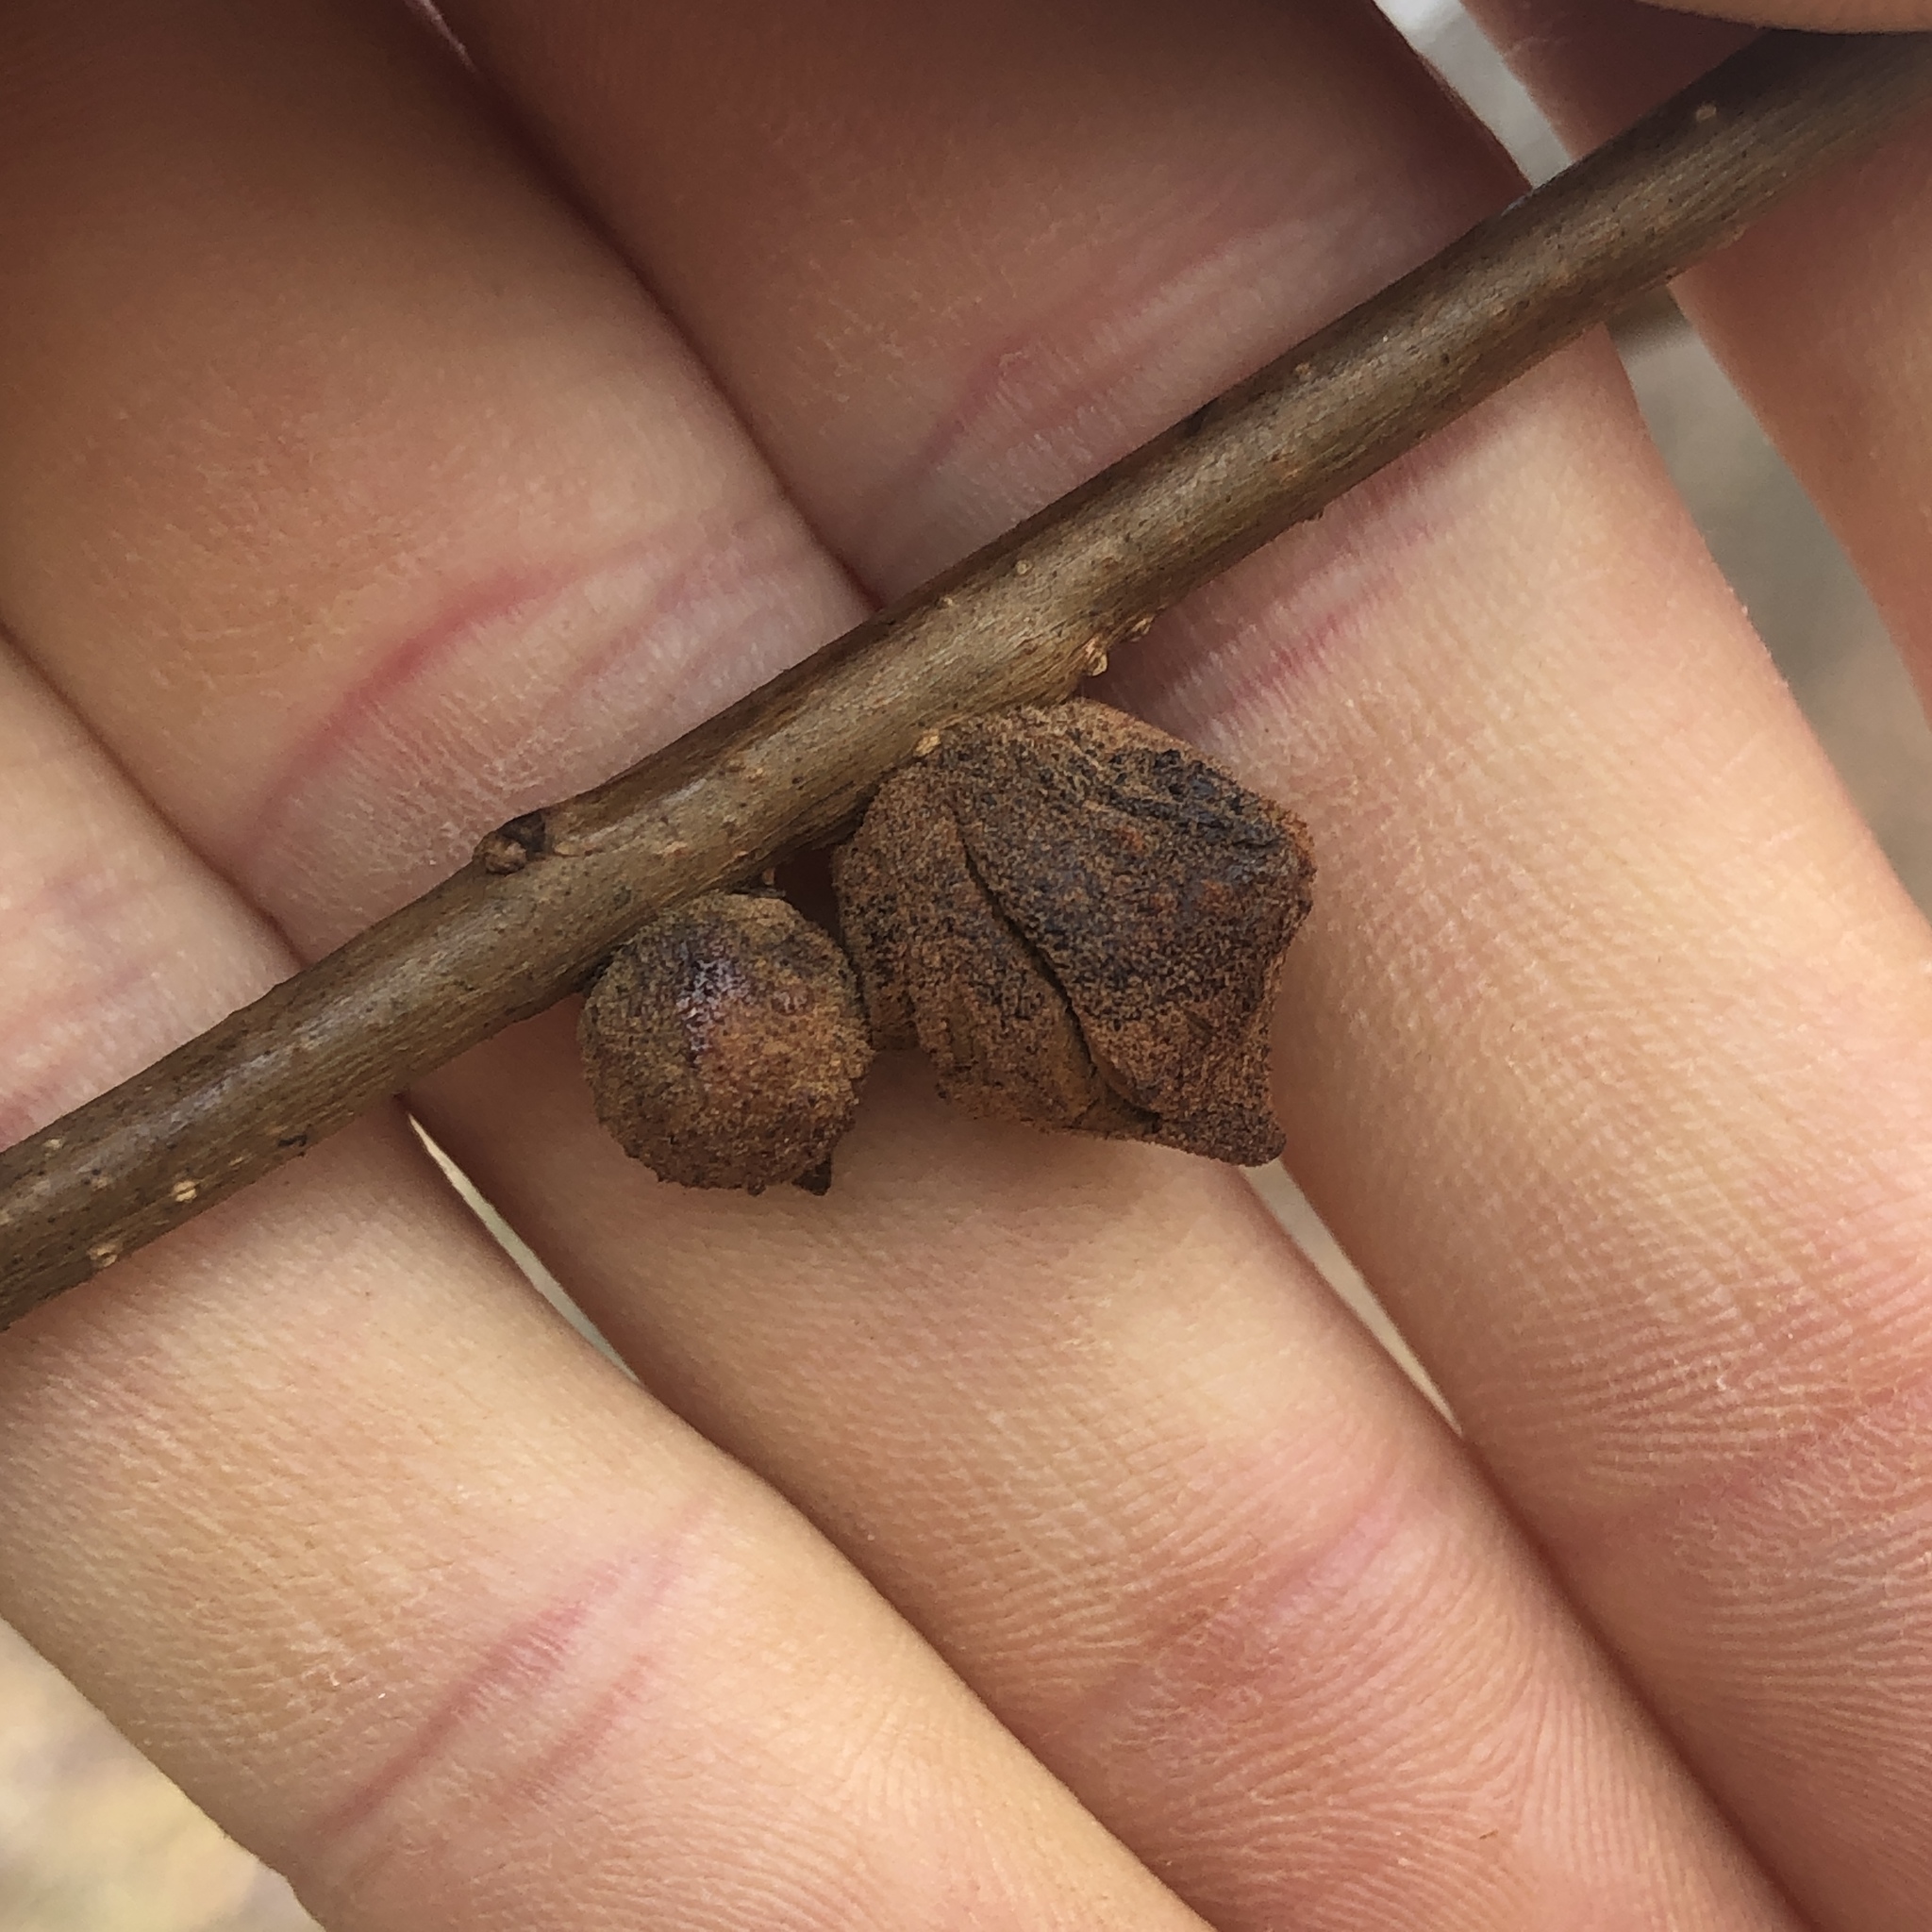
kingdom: Animalia
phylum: Arthropoda
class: Insecta
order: Hymenoptera
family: Cynipidae
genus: Disholcaspis
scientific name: Disholcaspis
